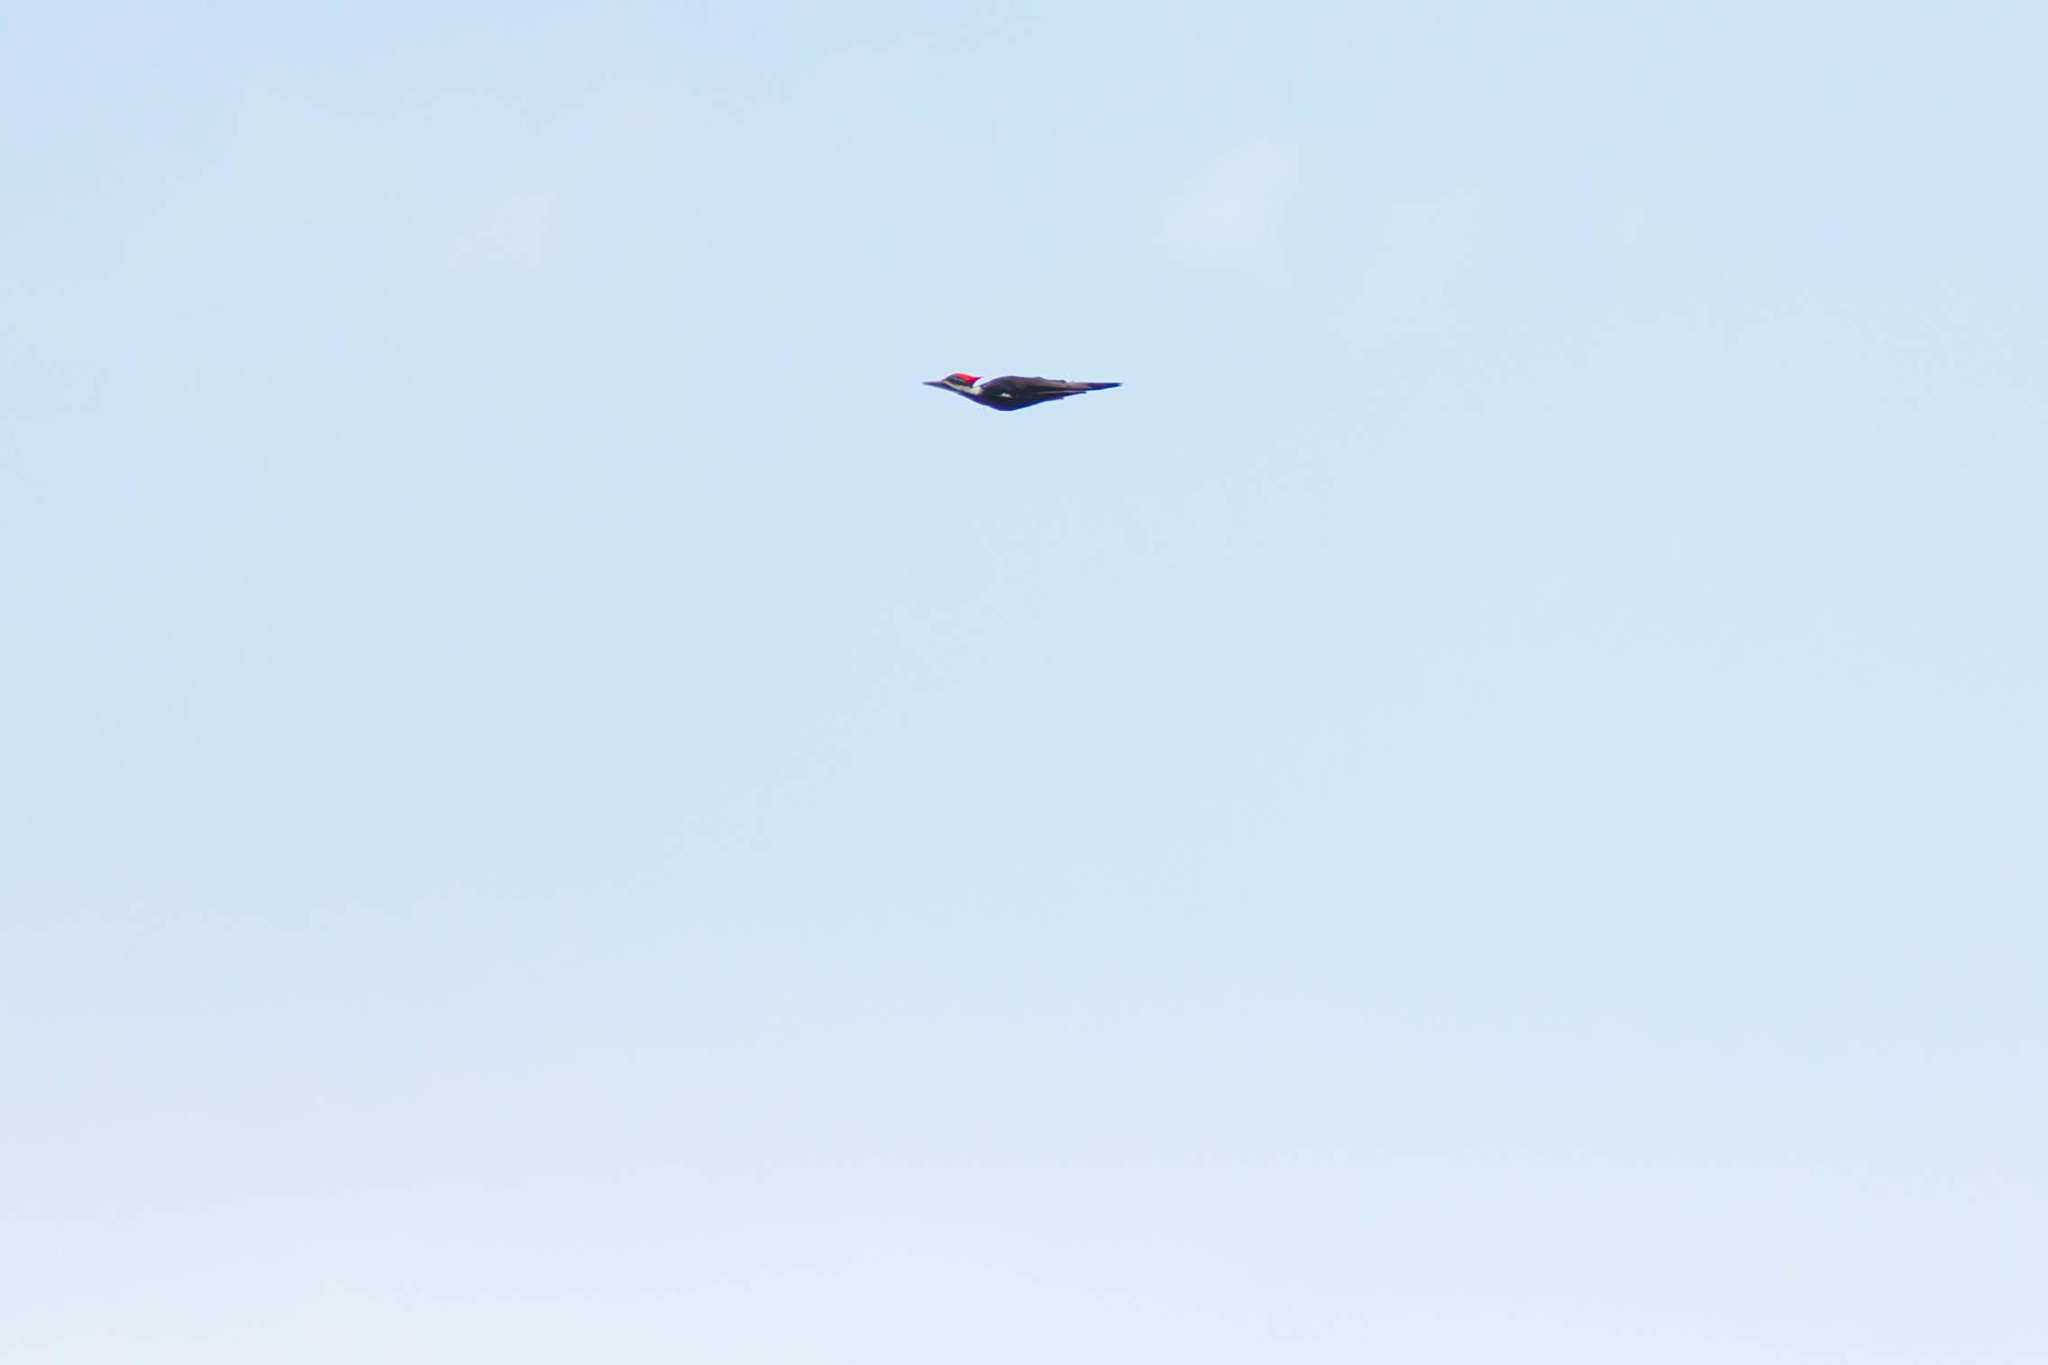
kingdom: Animalia
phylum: Chordata
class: Aves
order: Piciformes
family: Picidae
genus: Dryocopus
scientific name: Dryocopus pileatus
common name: Pileated woodpecker
